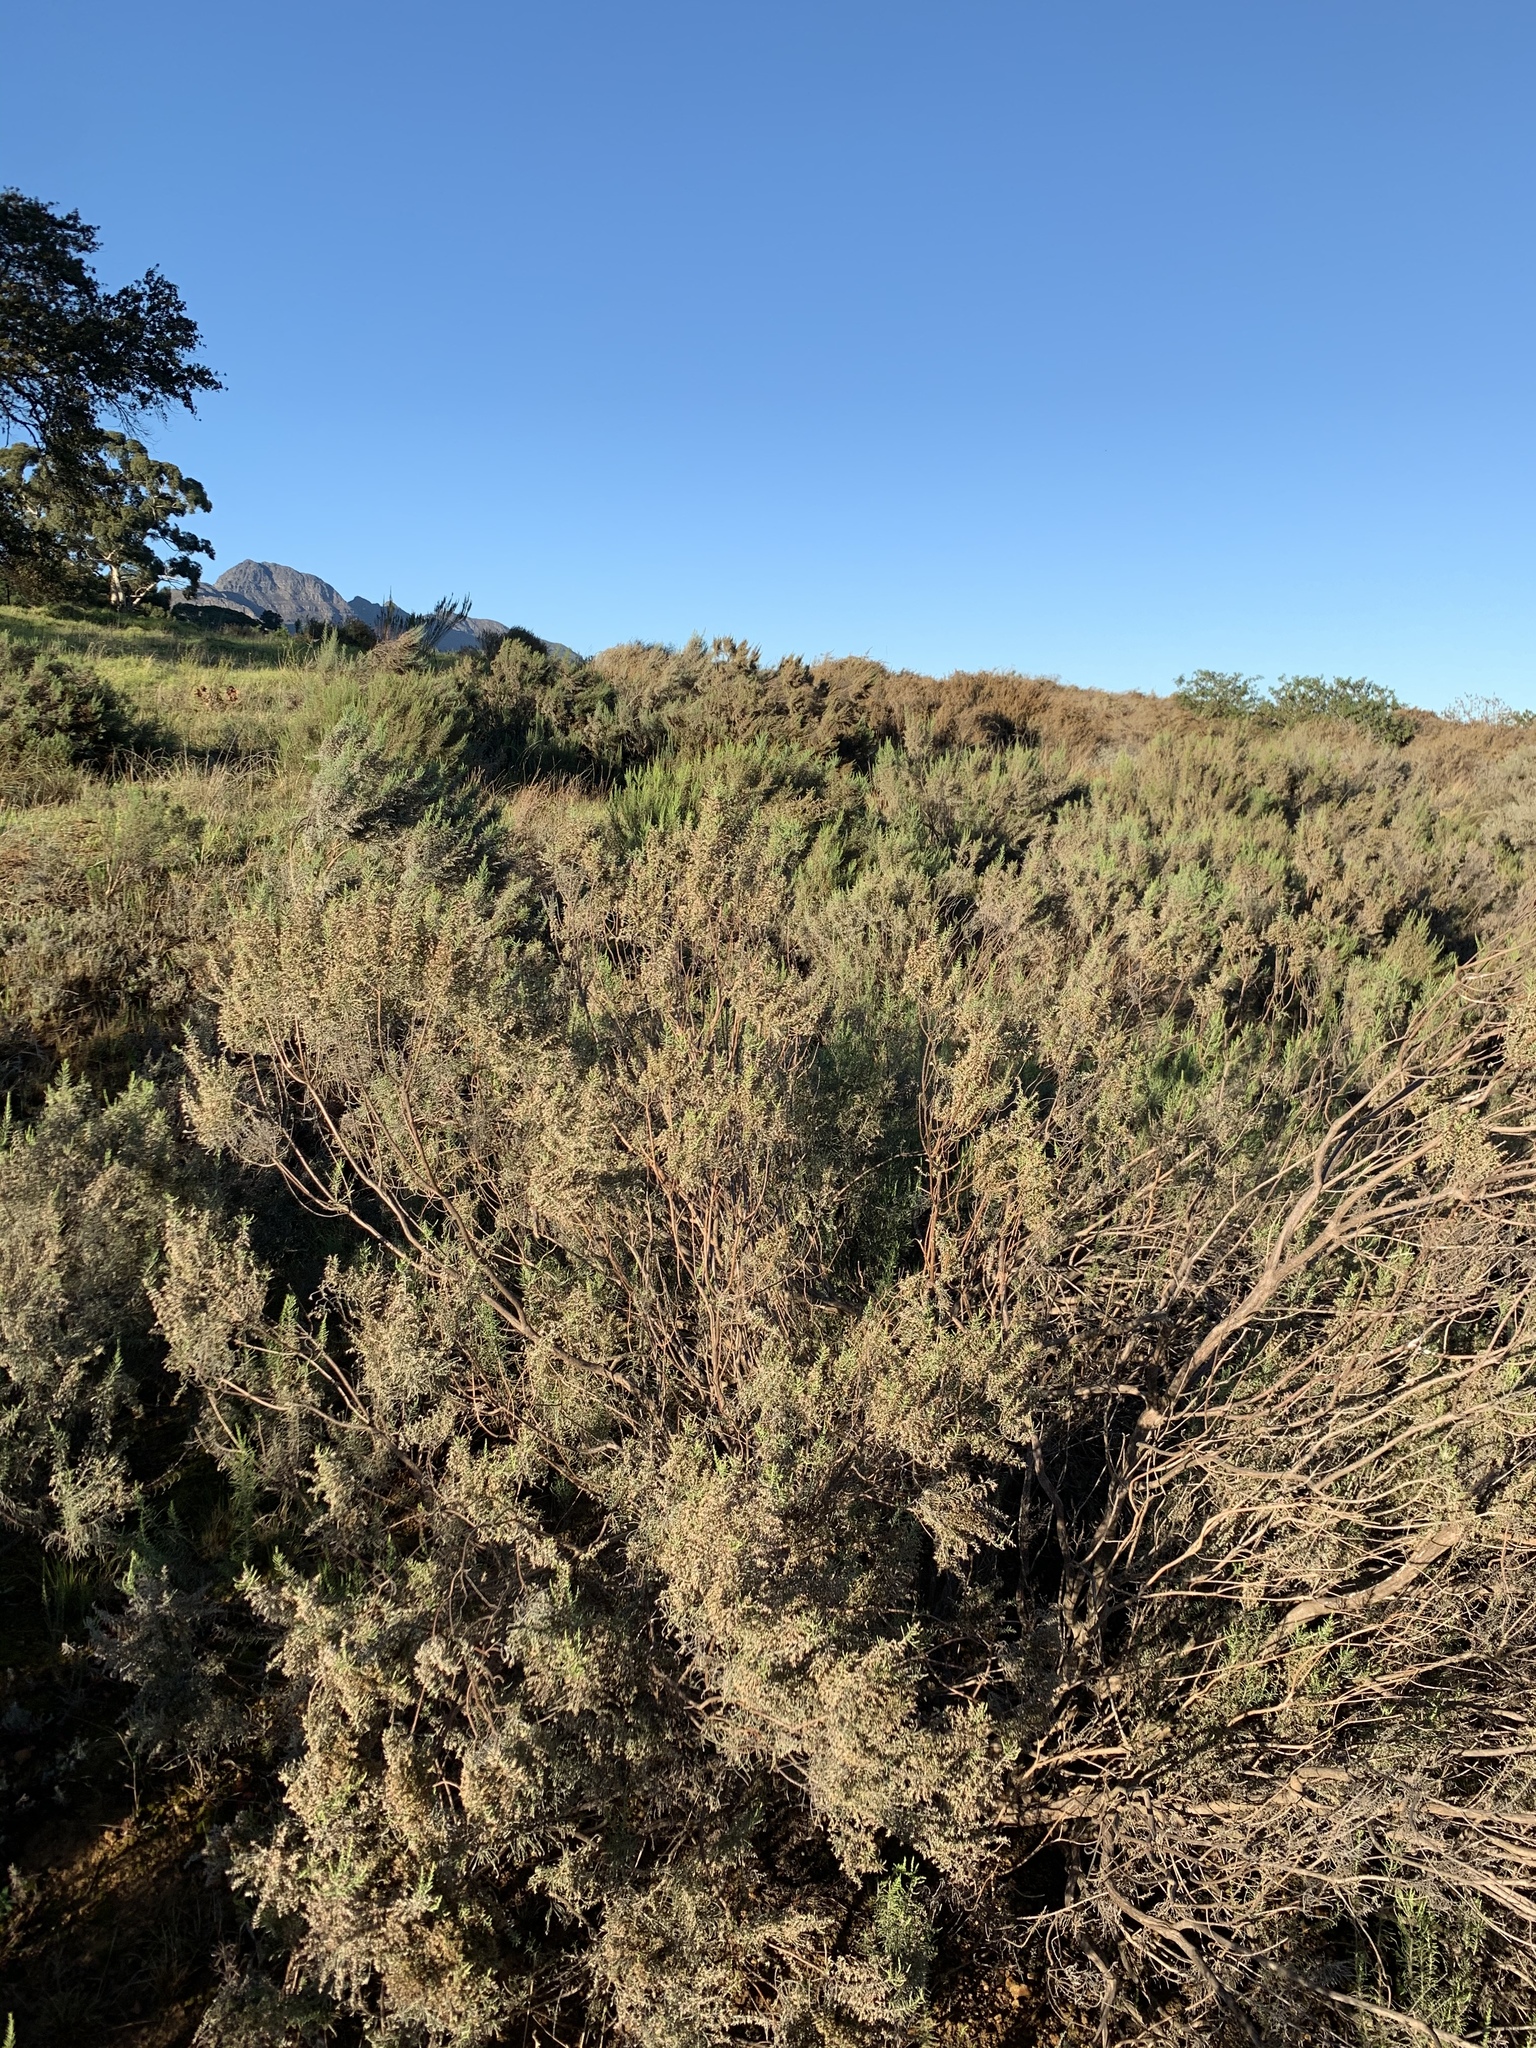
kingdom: Plantae
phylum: Tracheophyta
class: Magnoliopsida
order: Asterales
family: Asteraceae
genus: Dicerothamnus
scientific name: Dicerothamnus rhinocerotis
